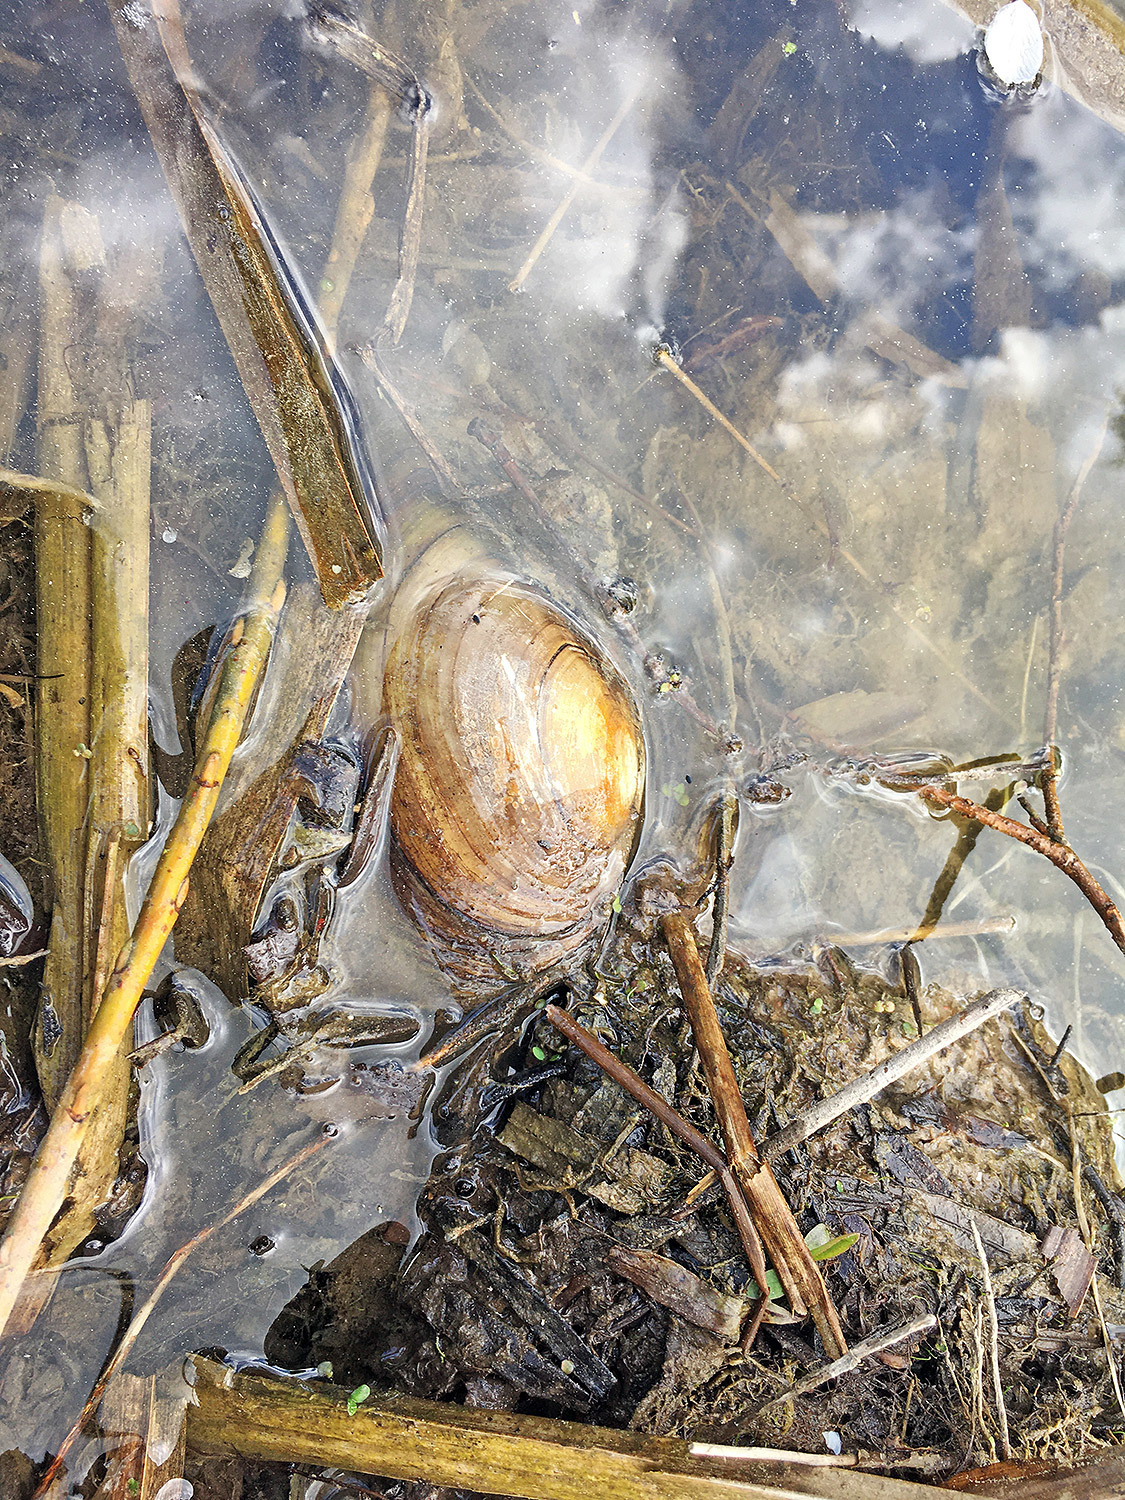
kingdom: Animalia
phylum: Mollusca
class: Bivalvia
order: Unionida
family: Unionidae
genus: Anodonta
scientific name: Anodonta anatina
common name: Duck mussel
